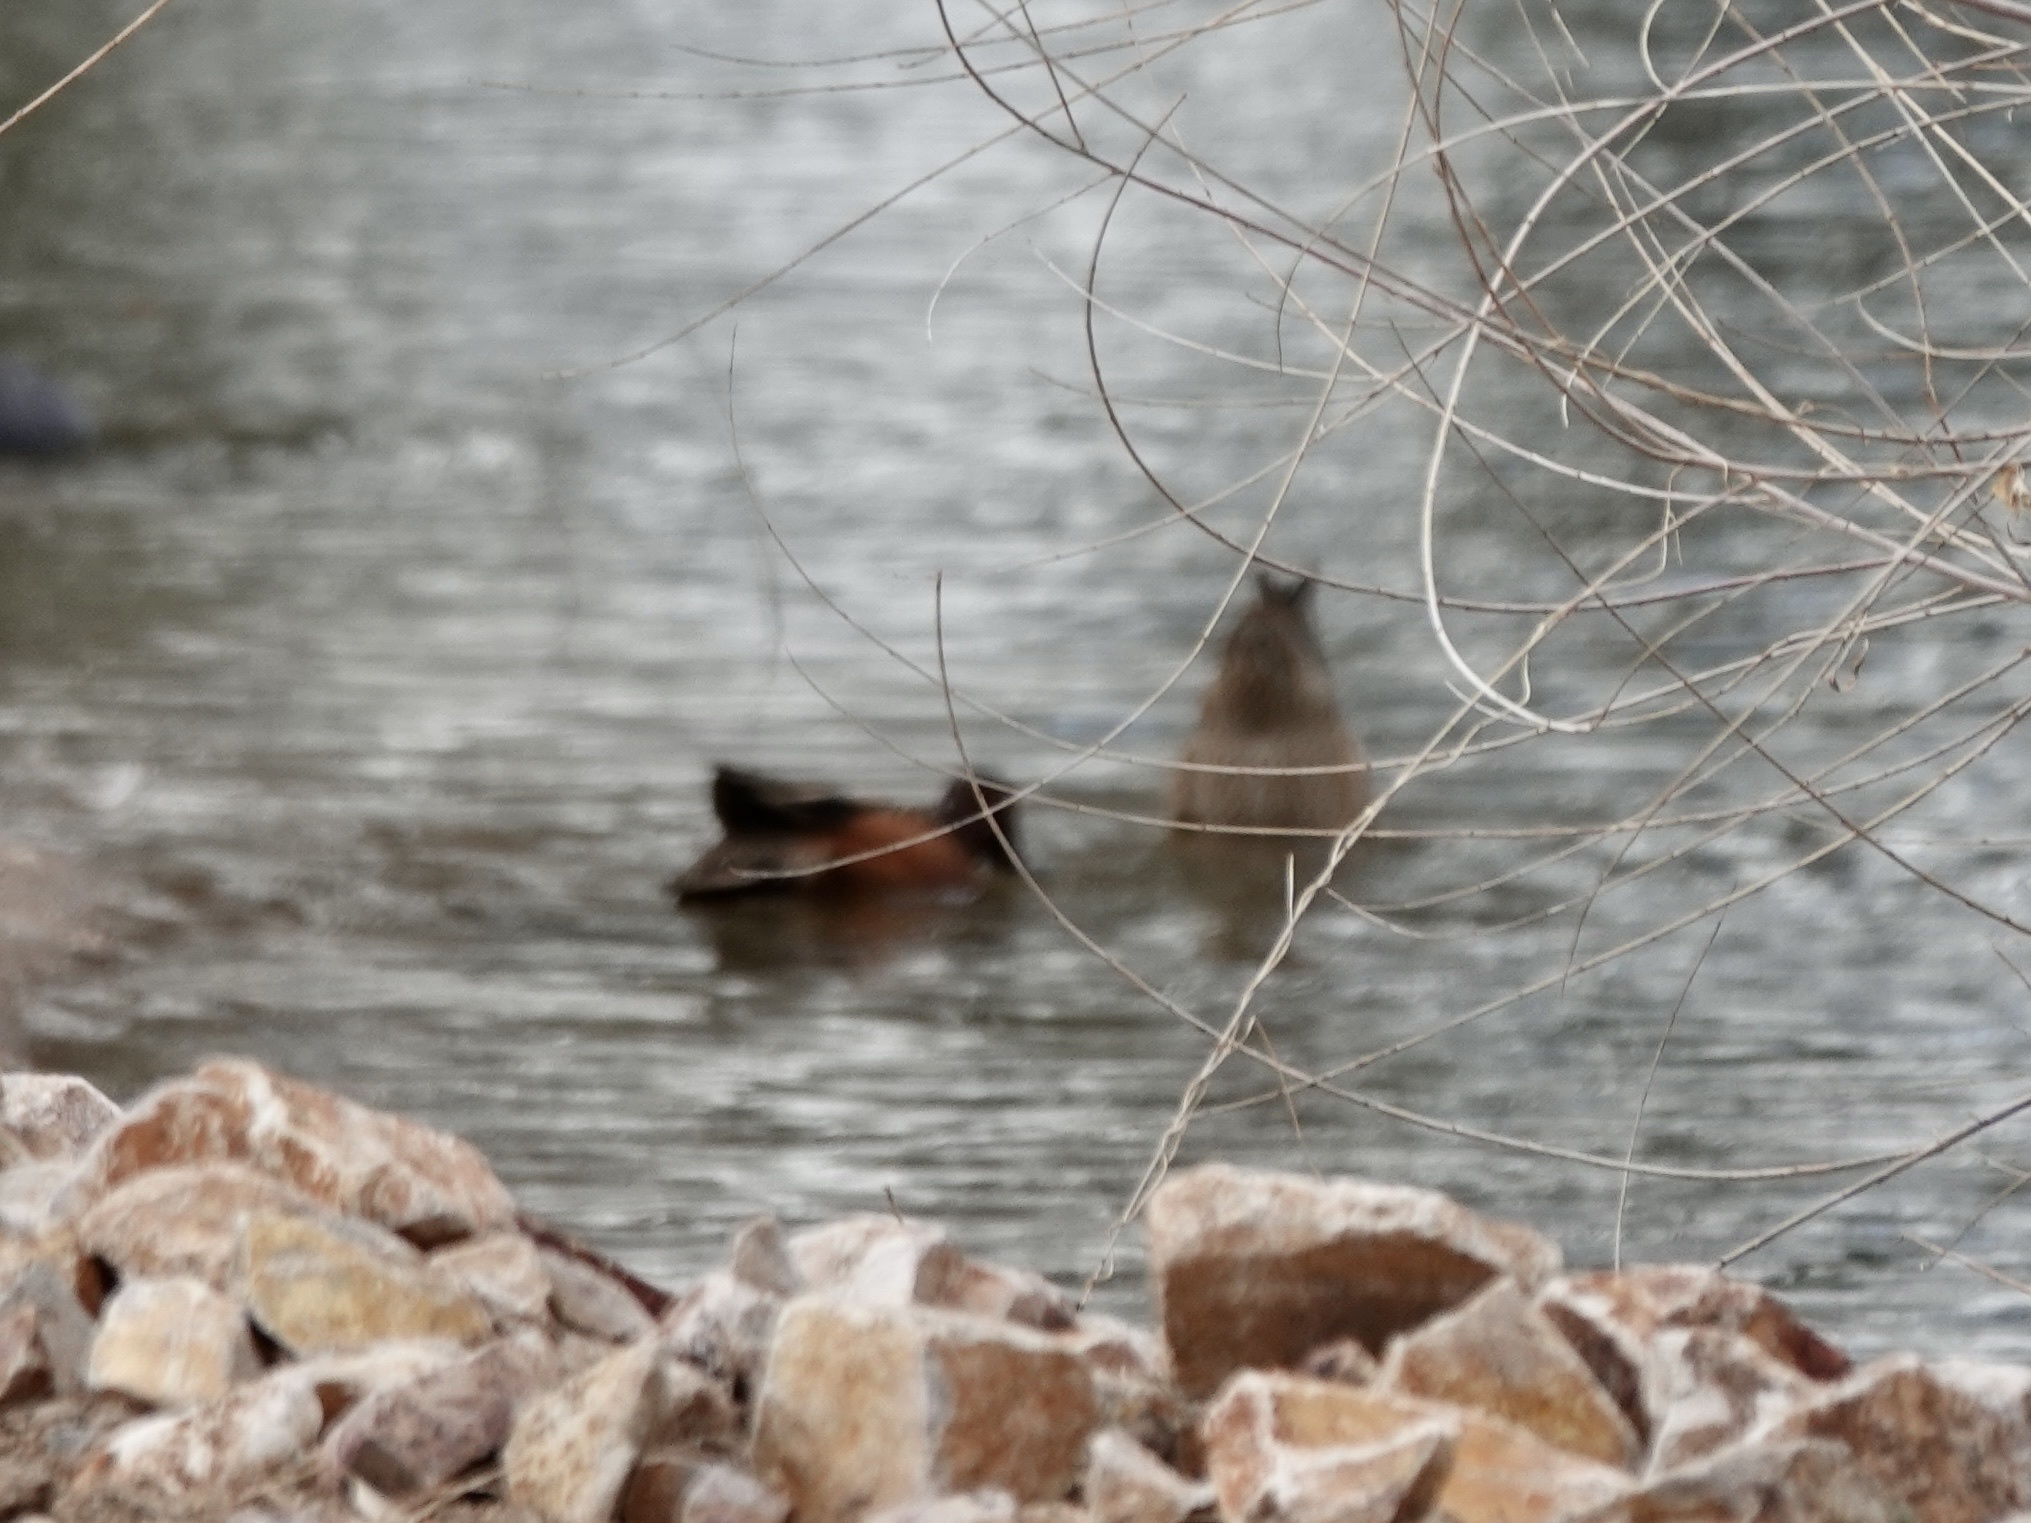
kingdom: Animalia
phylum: Chordata
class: Aves
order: Anseriformes
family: Anatidae
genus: Spatula
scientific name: Spatula cyanoptera
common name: Cinnamon teal
